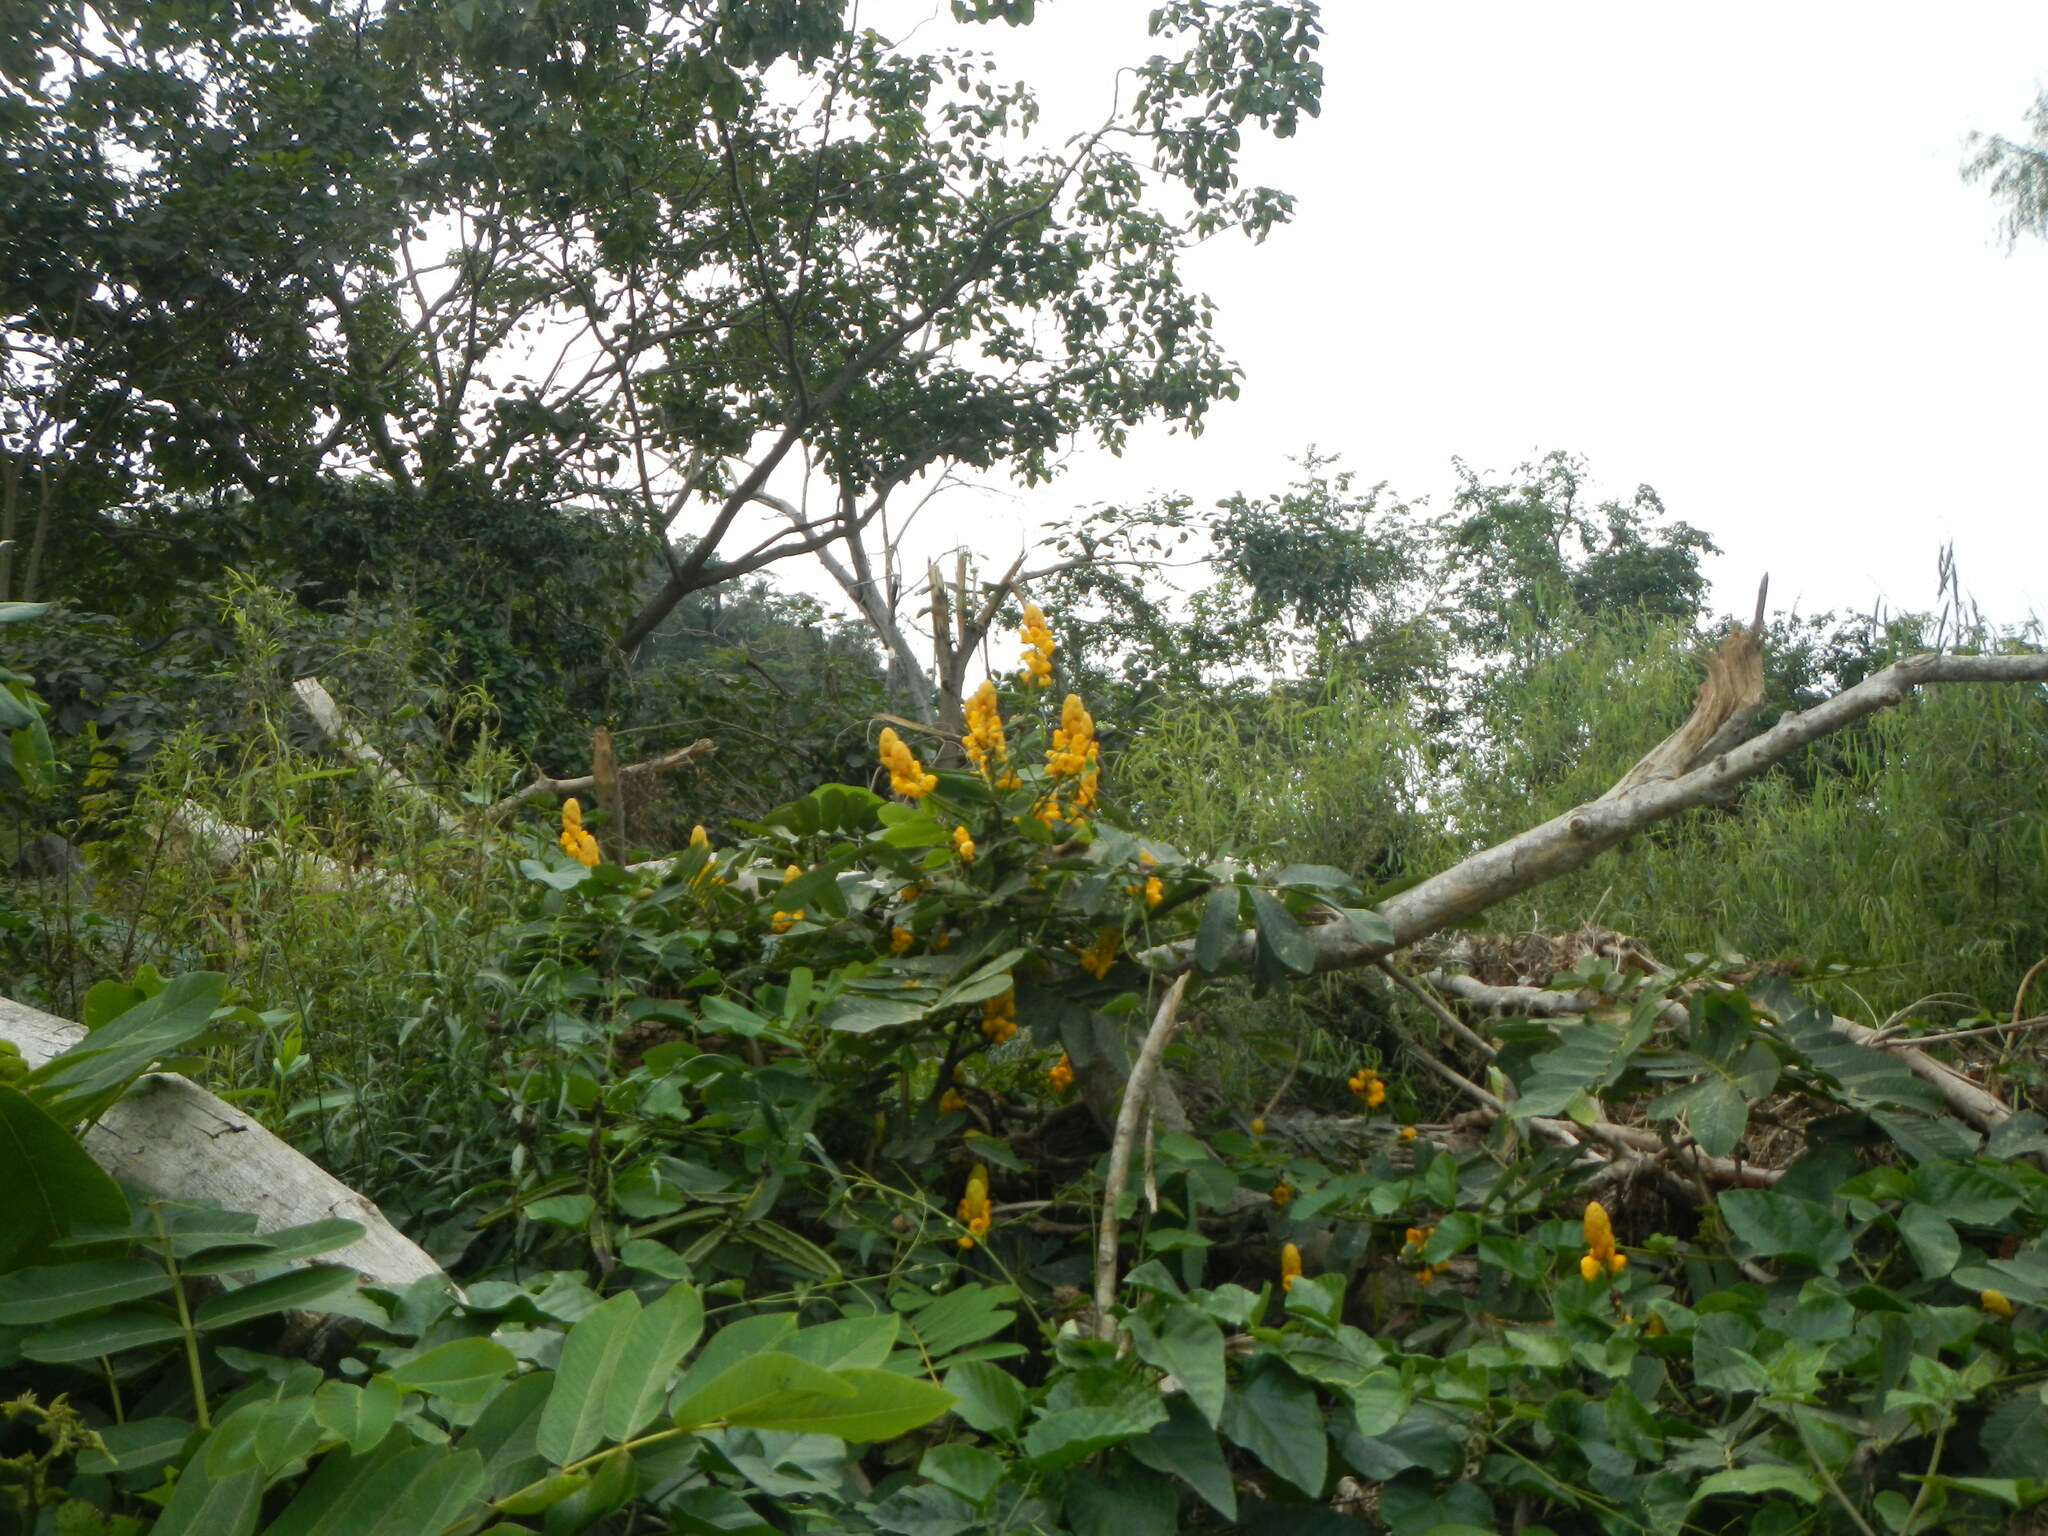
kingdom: Plantae
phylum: Tracheophyta
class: Magnoliopsida
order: Fabales
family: Fabaceae
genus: Senna
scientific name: Senna alata
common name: Emperor's candlesticks
